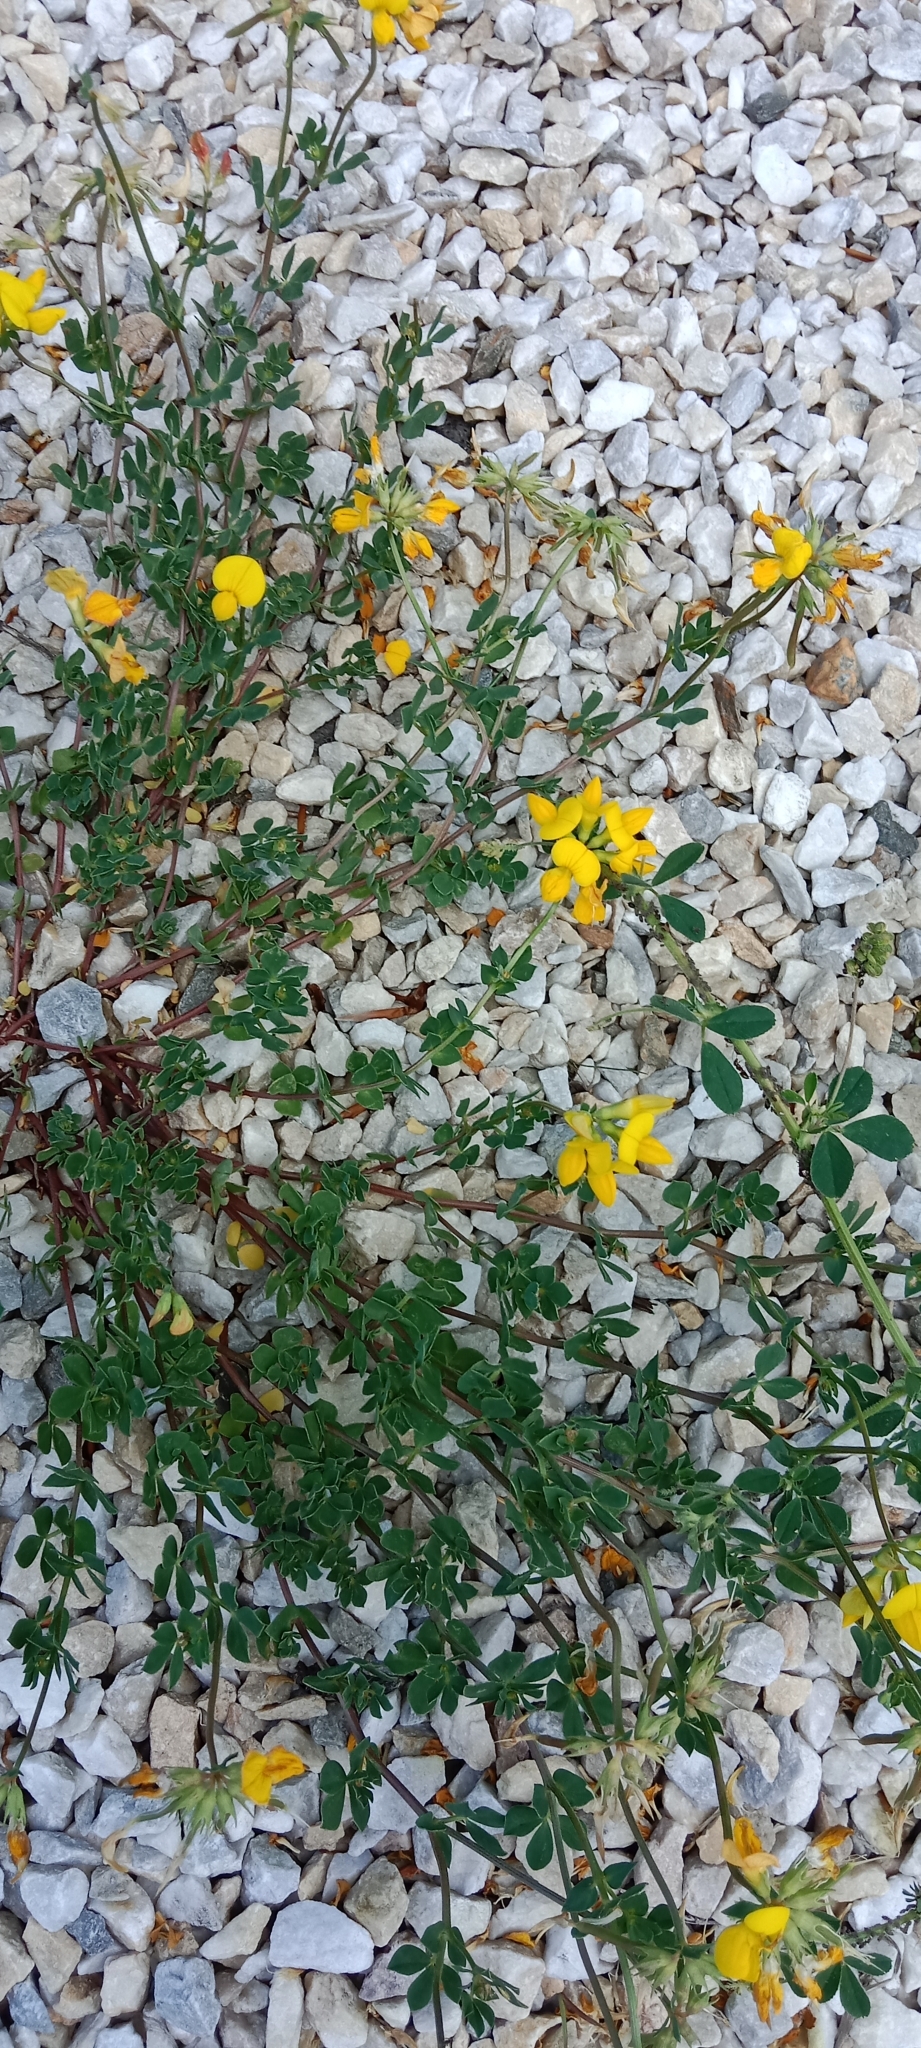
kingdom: Plantae
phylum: Tracheophyta
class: Magnoliopsida
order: Fabales
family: Fabaceae
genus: Lotus
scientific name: Lotus corniculatus
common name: Common bird's-foot-trefoil
